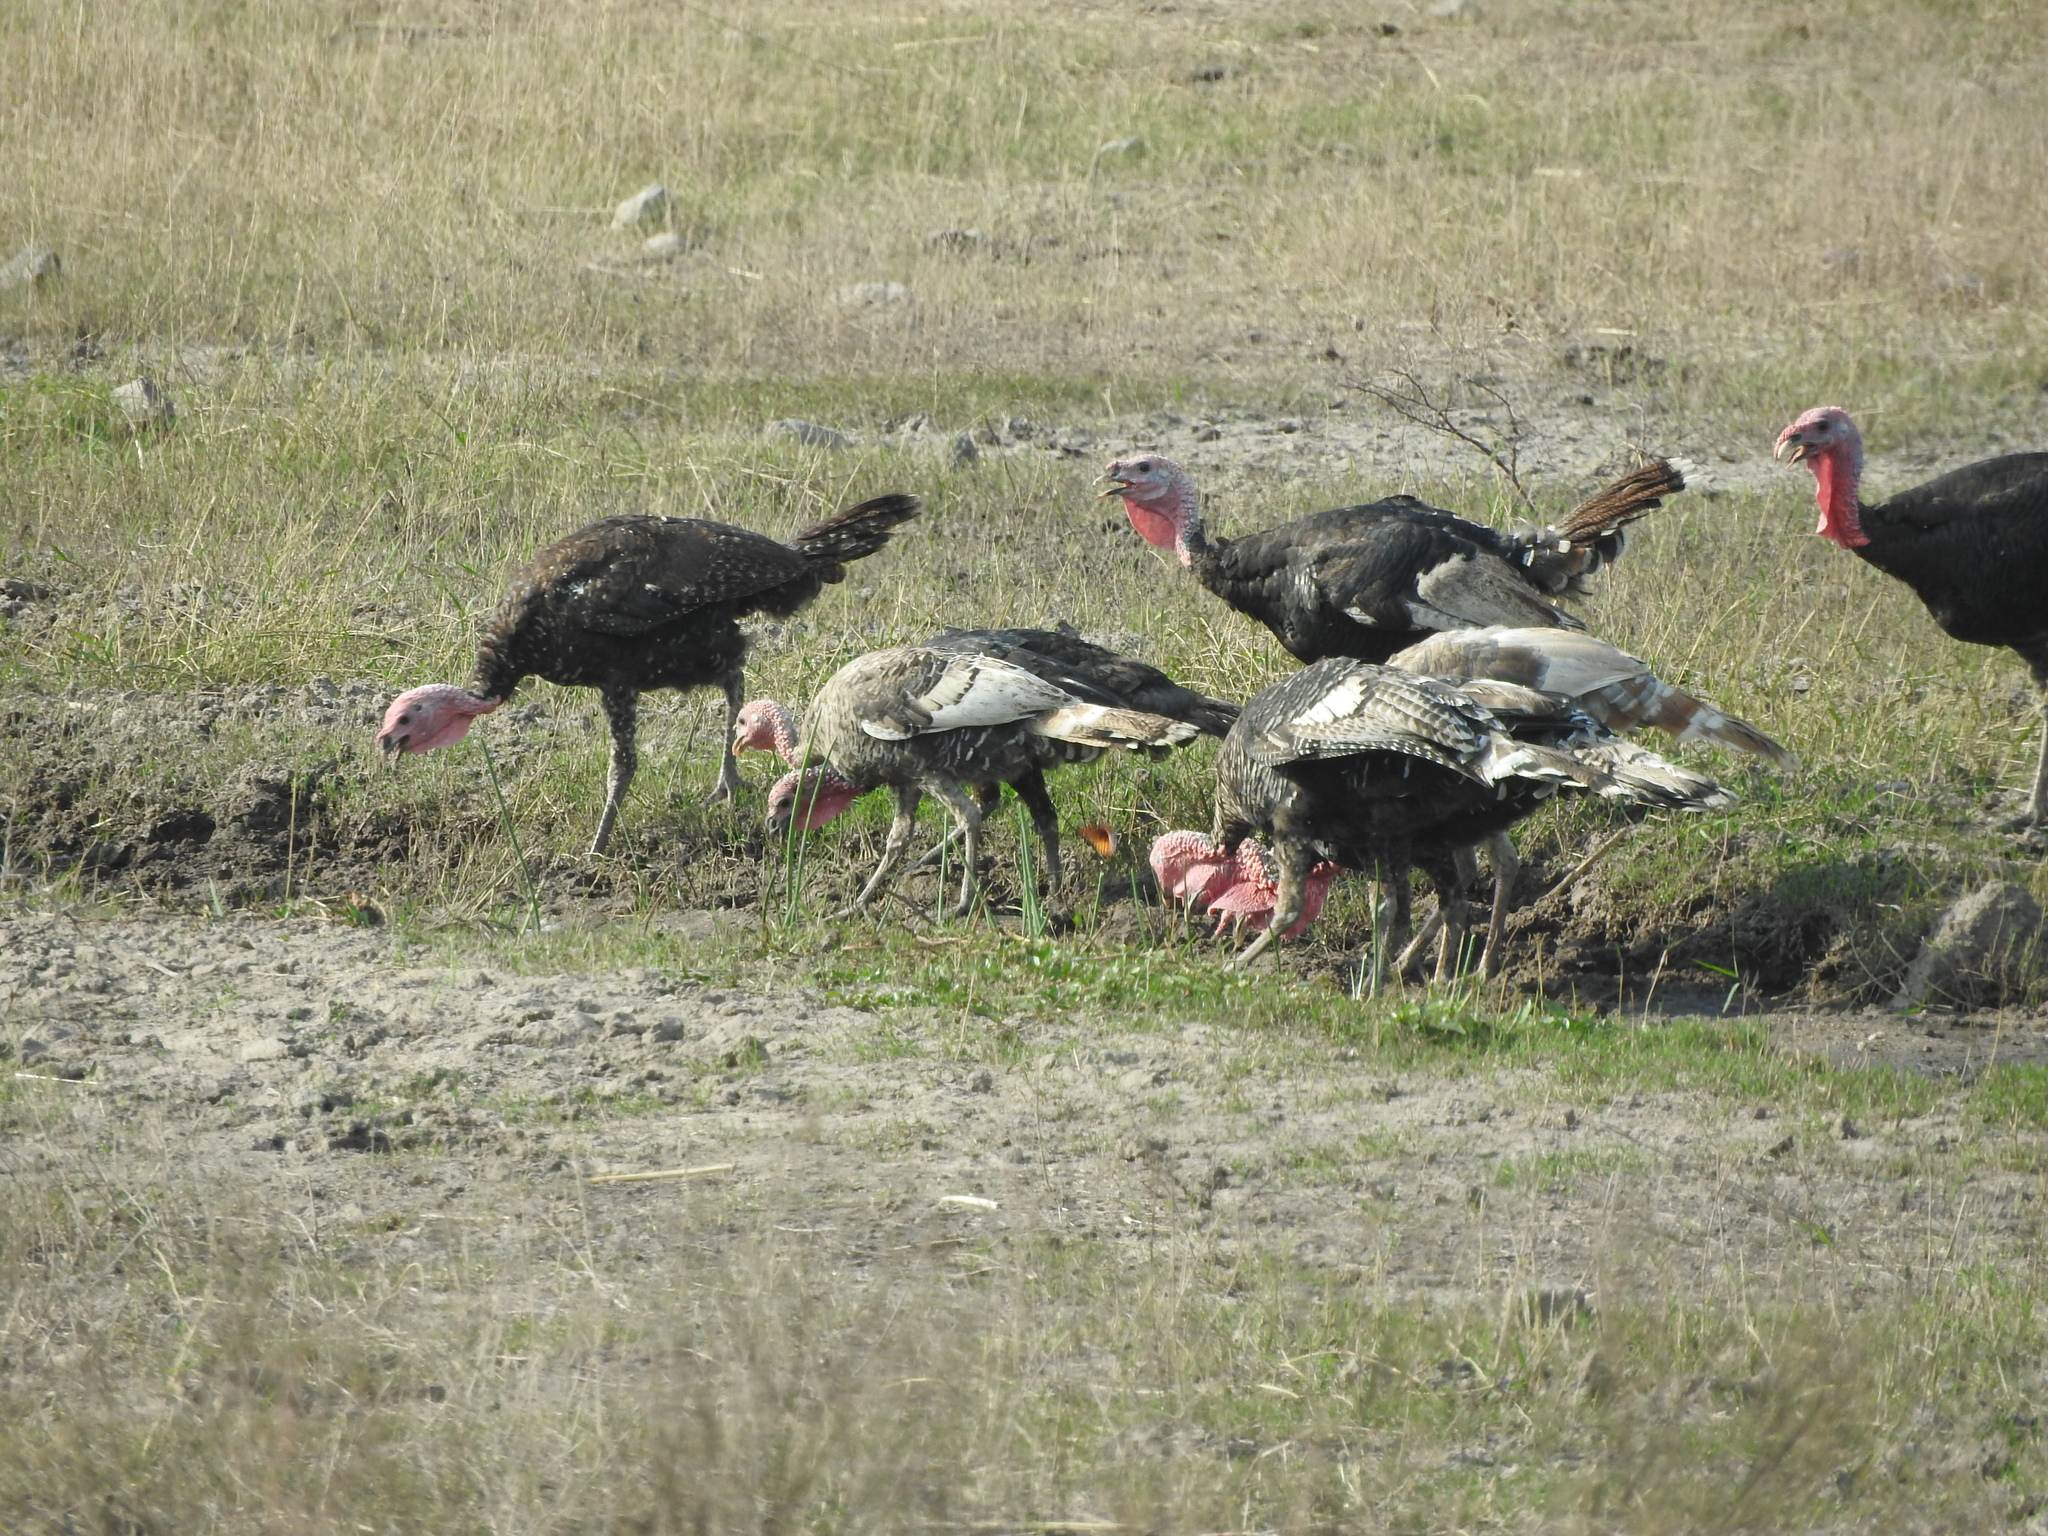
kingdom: Animalia
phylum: Chordata
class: Aves
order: Galliformes
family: Phasianidae
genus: Meleagris
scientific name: Meleagris gallopavo
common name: Wild turkey
